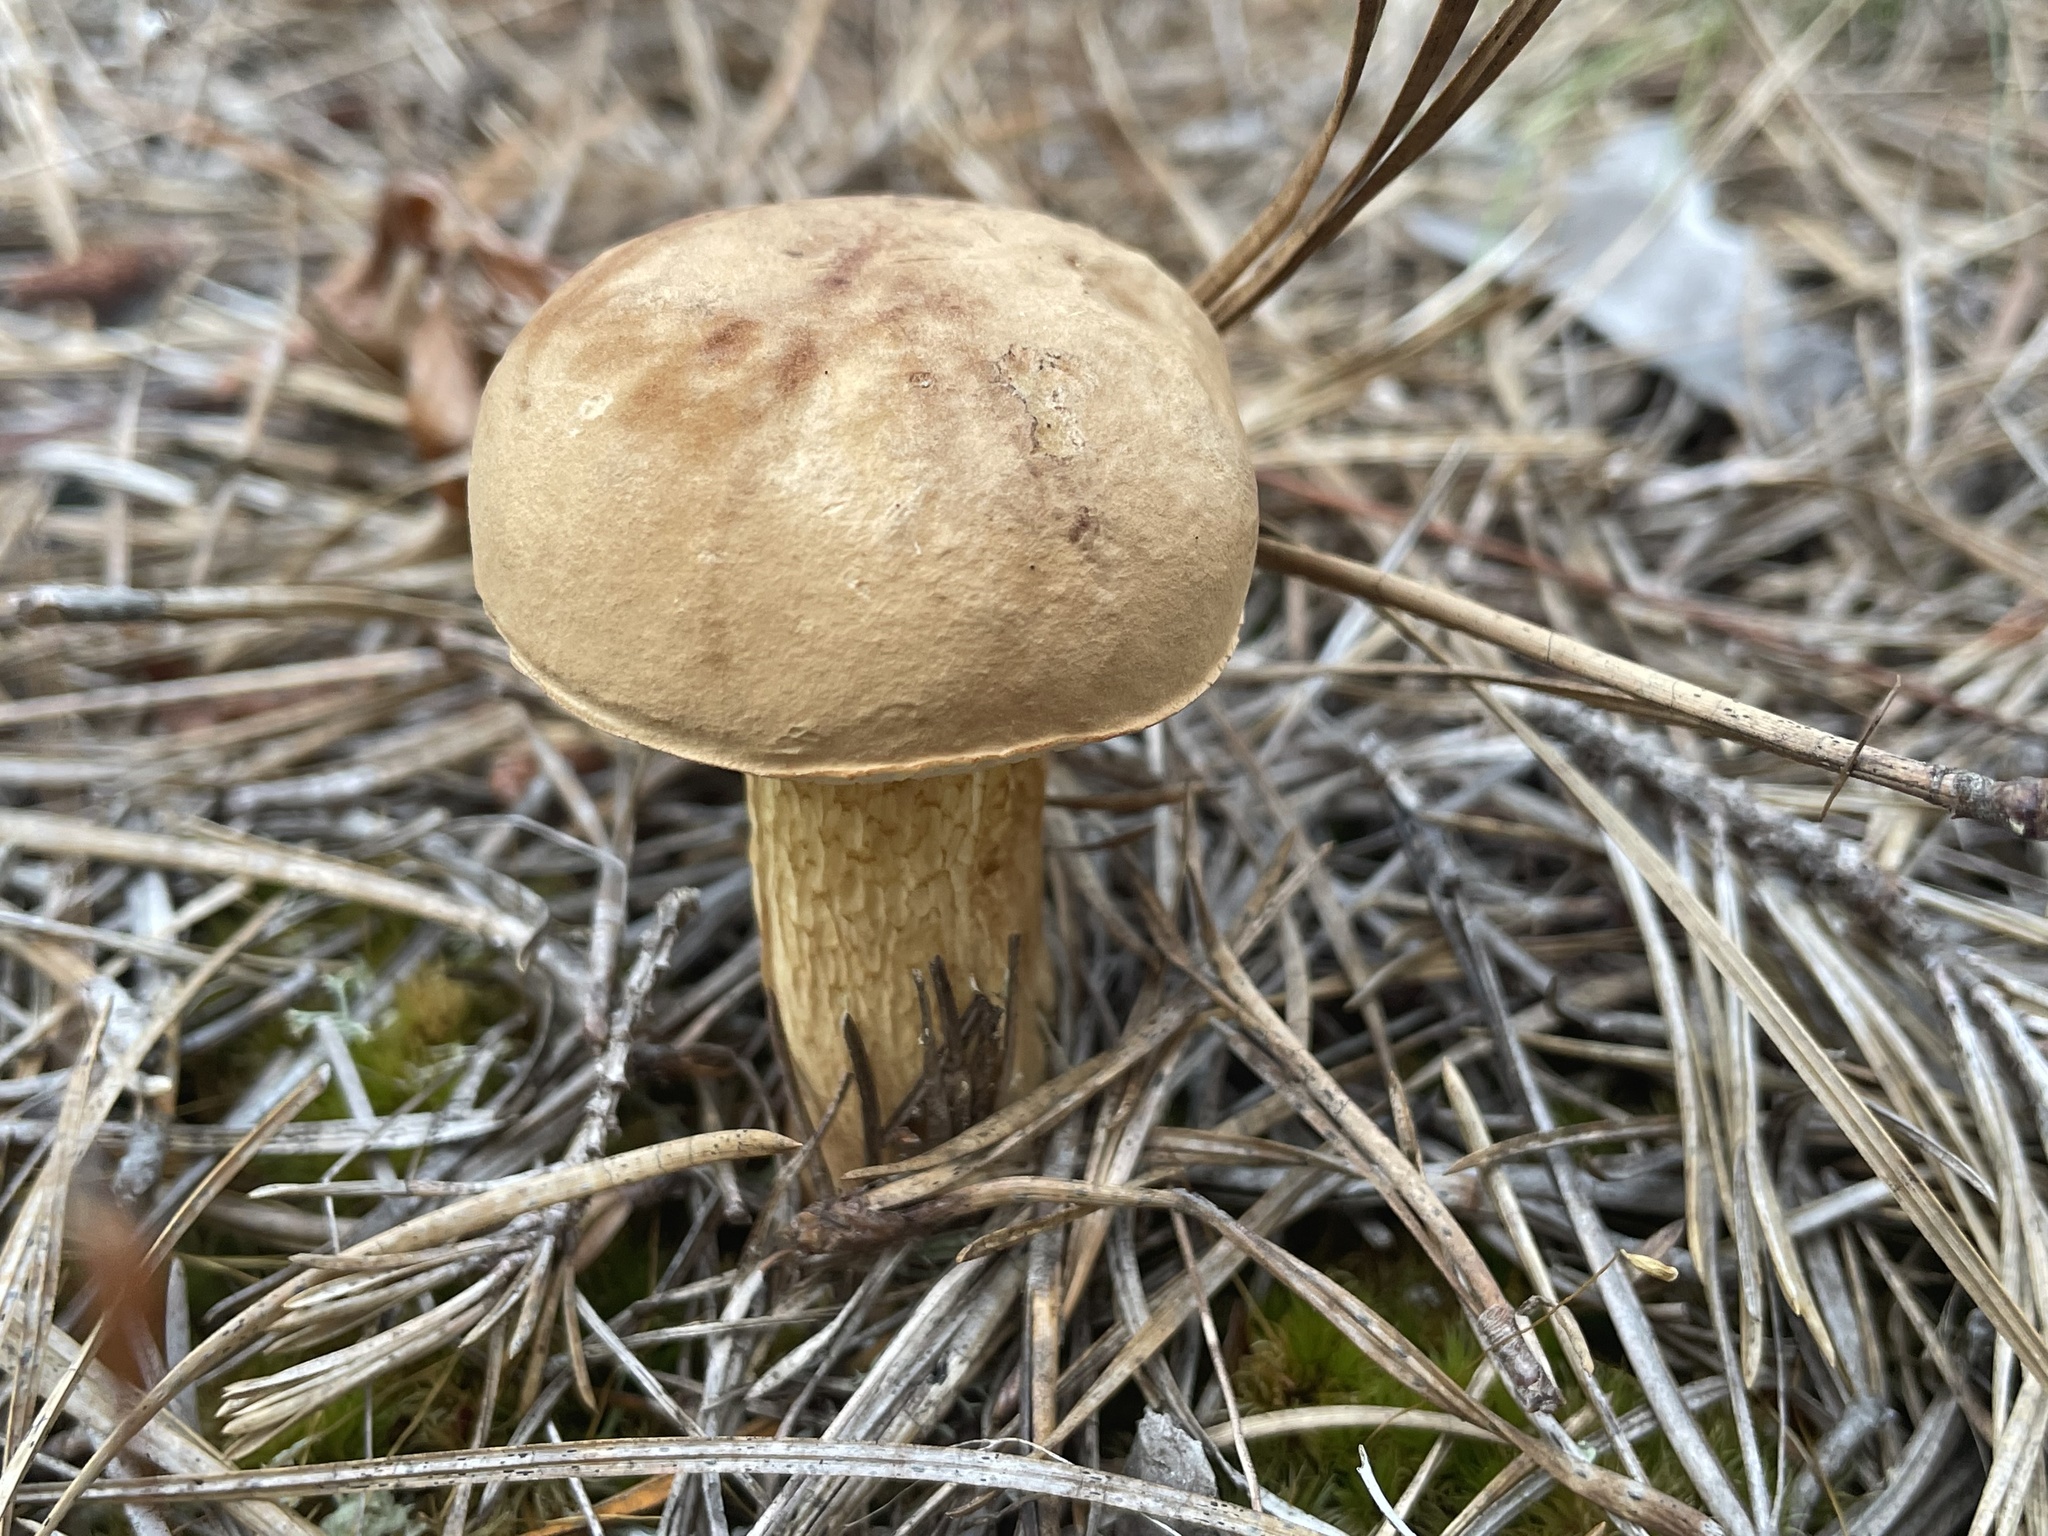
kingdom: Fungi
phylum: Basidiomycota
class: Agaricomycetes
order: Boletales
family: Boletaceae
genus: Tylopilus
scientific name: Tylopilus felleus
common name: Bitter bolete
